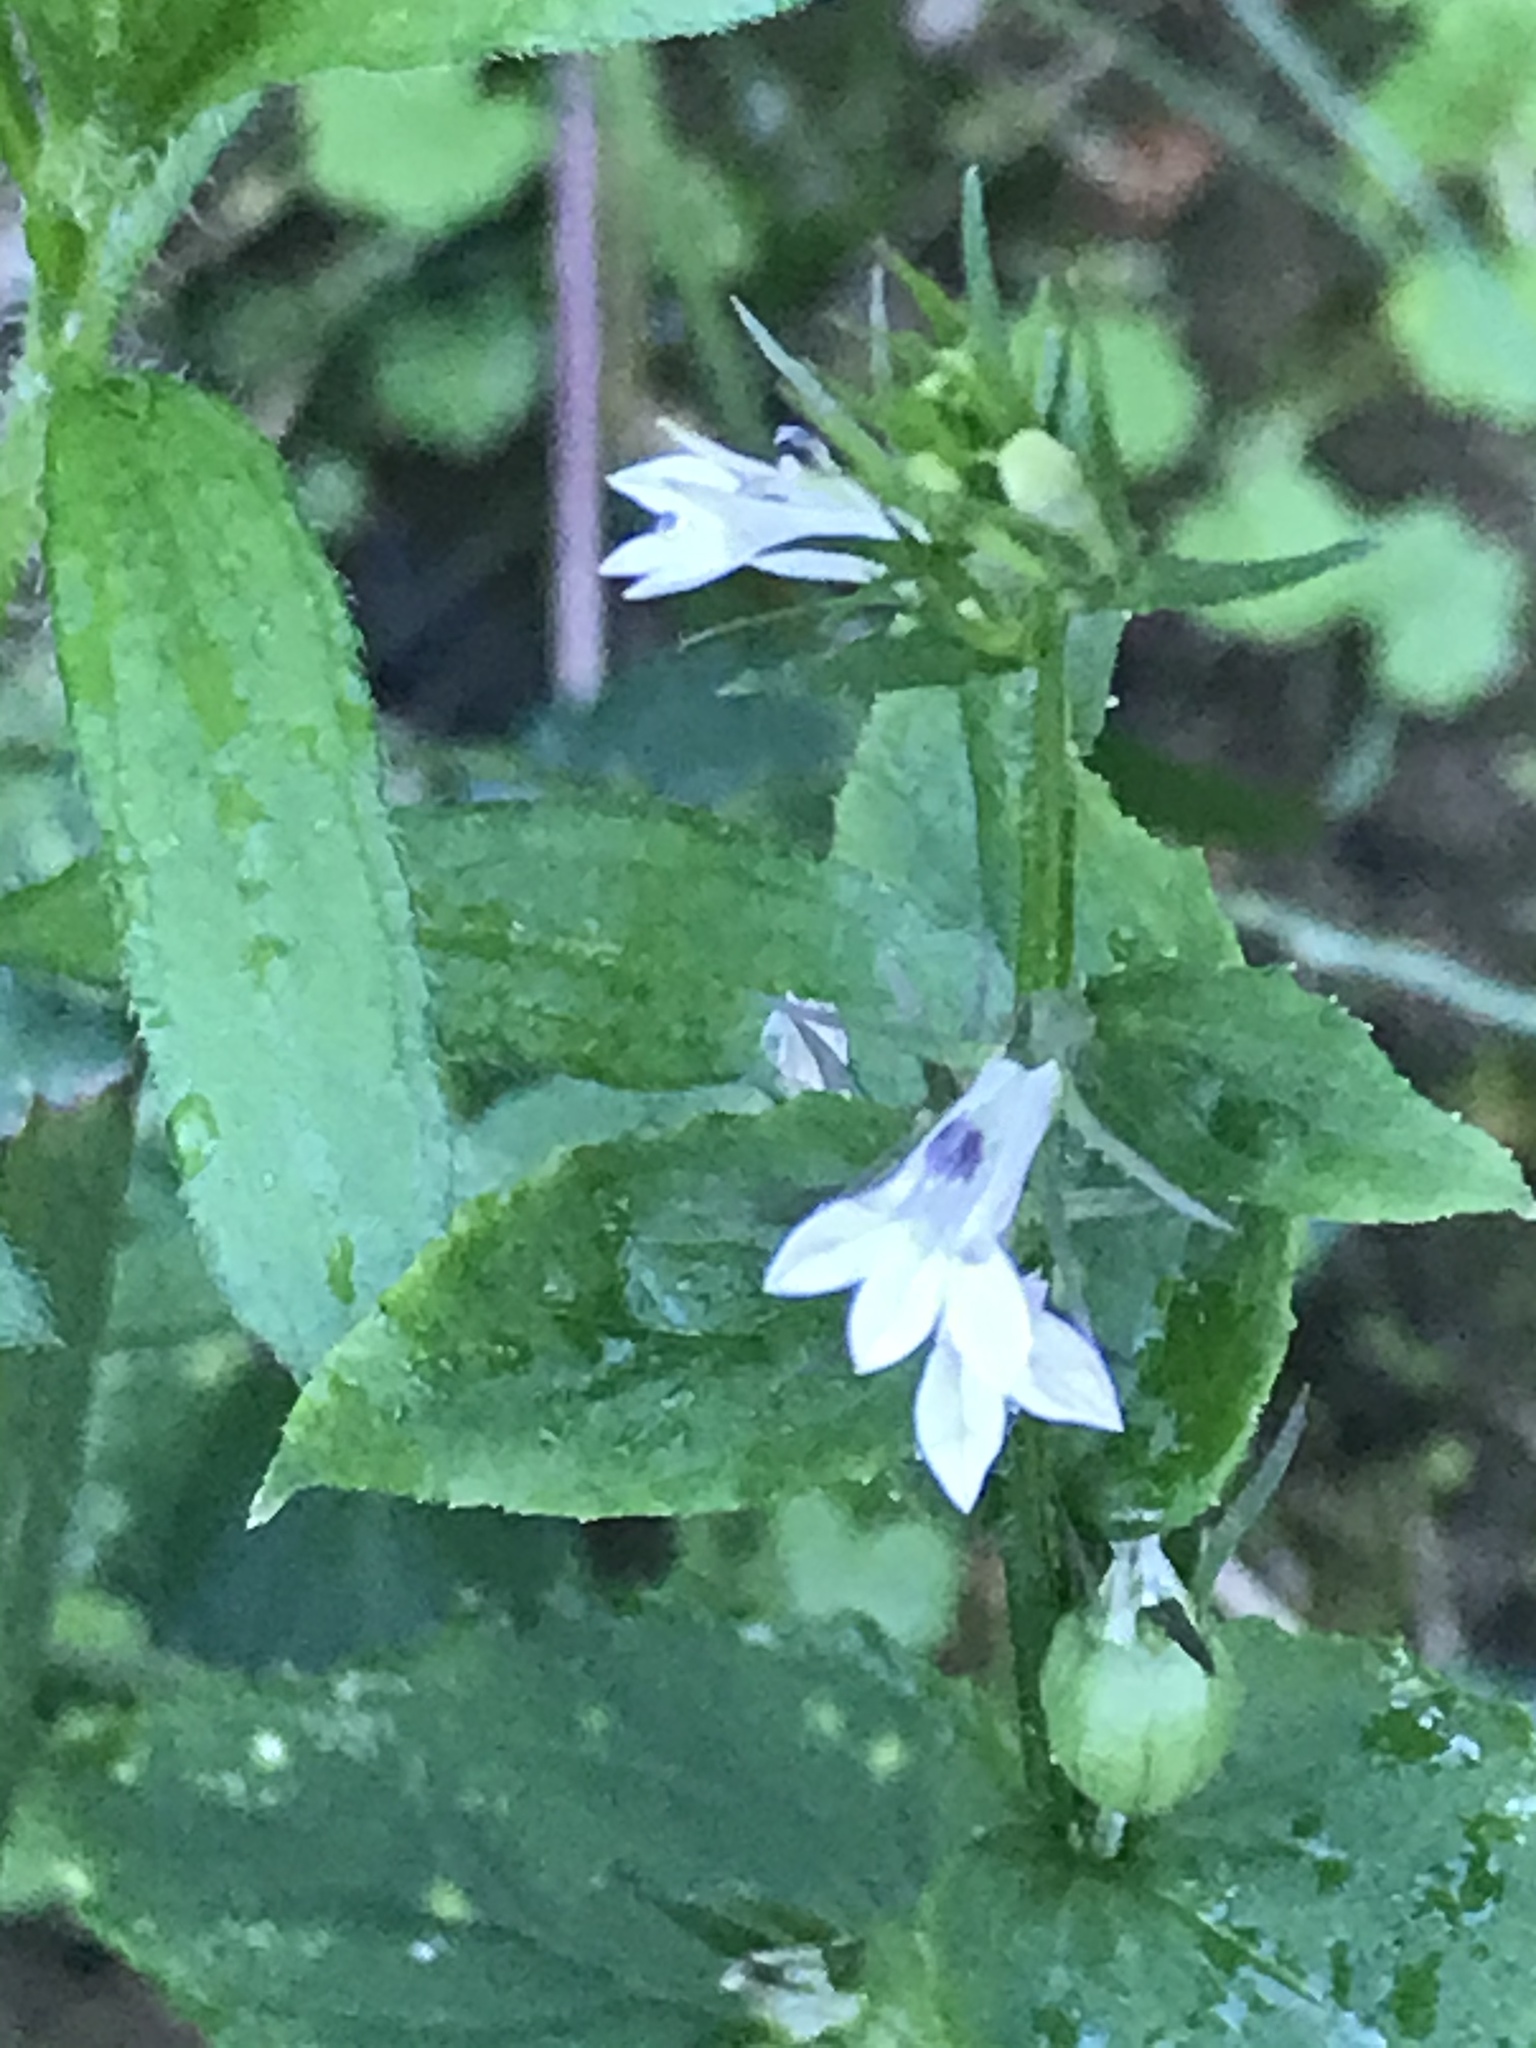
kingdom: Plantae
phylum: Tracheophyta
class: Magnoliopsida
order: Asterales
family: Campanulaceae
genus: Lobelia
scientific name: Lobelia inflata
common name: Indian tobacco
